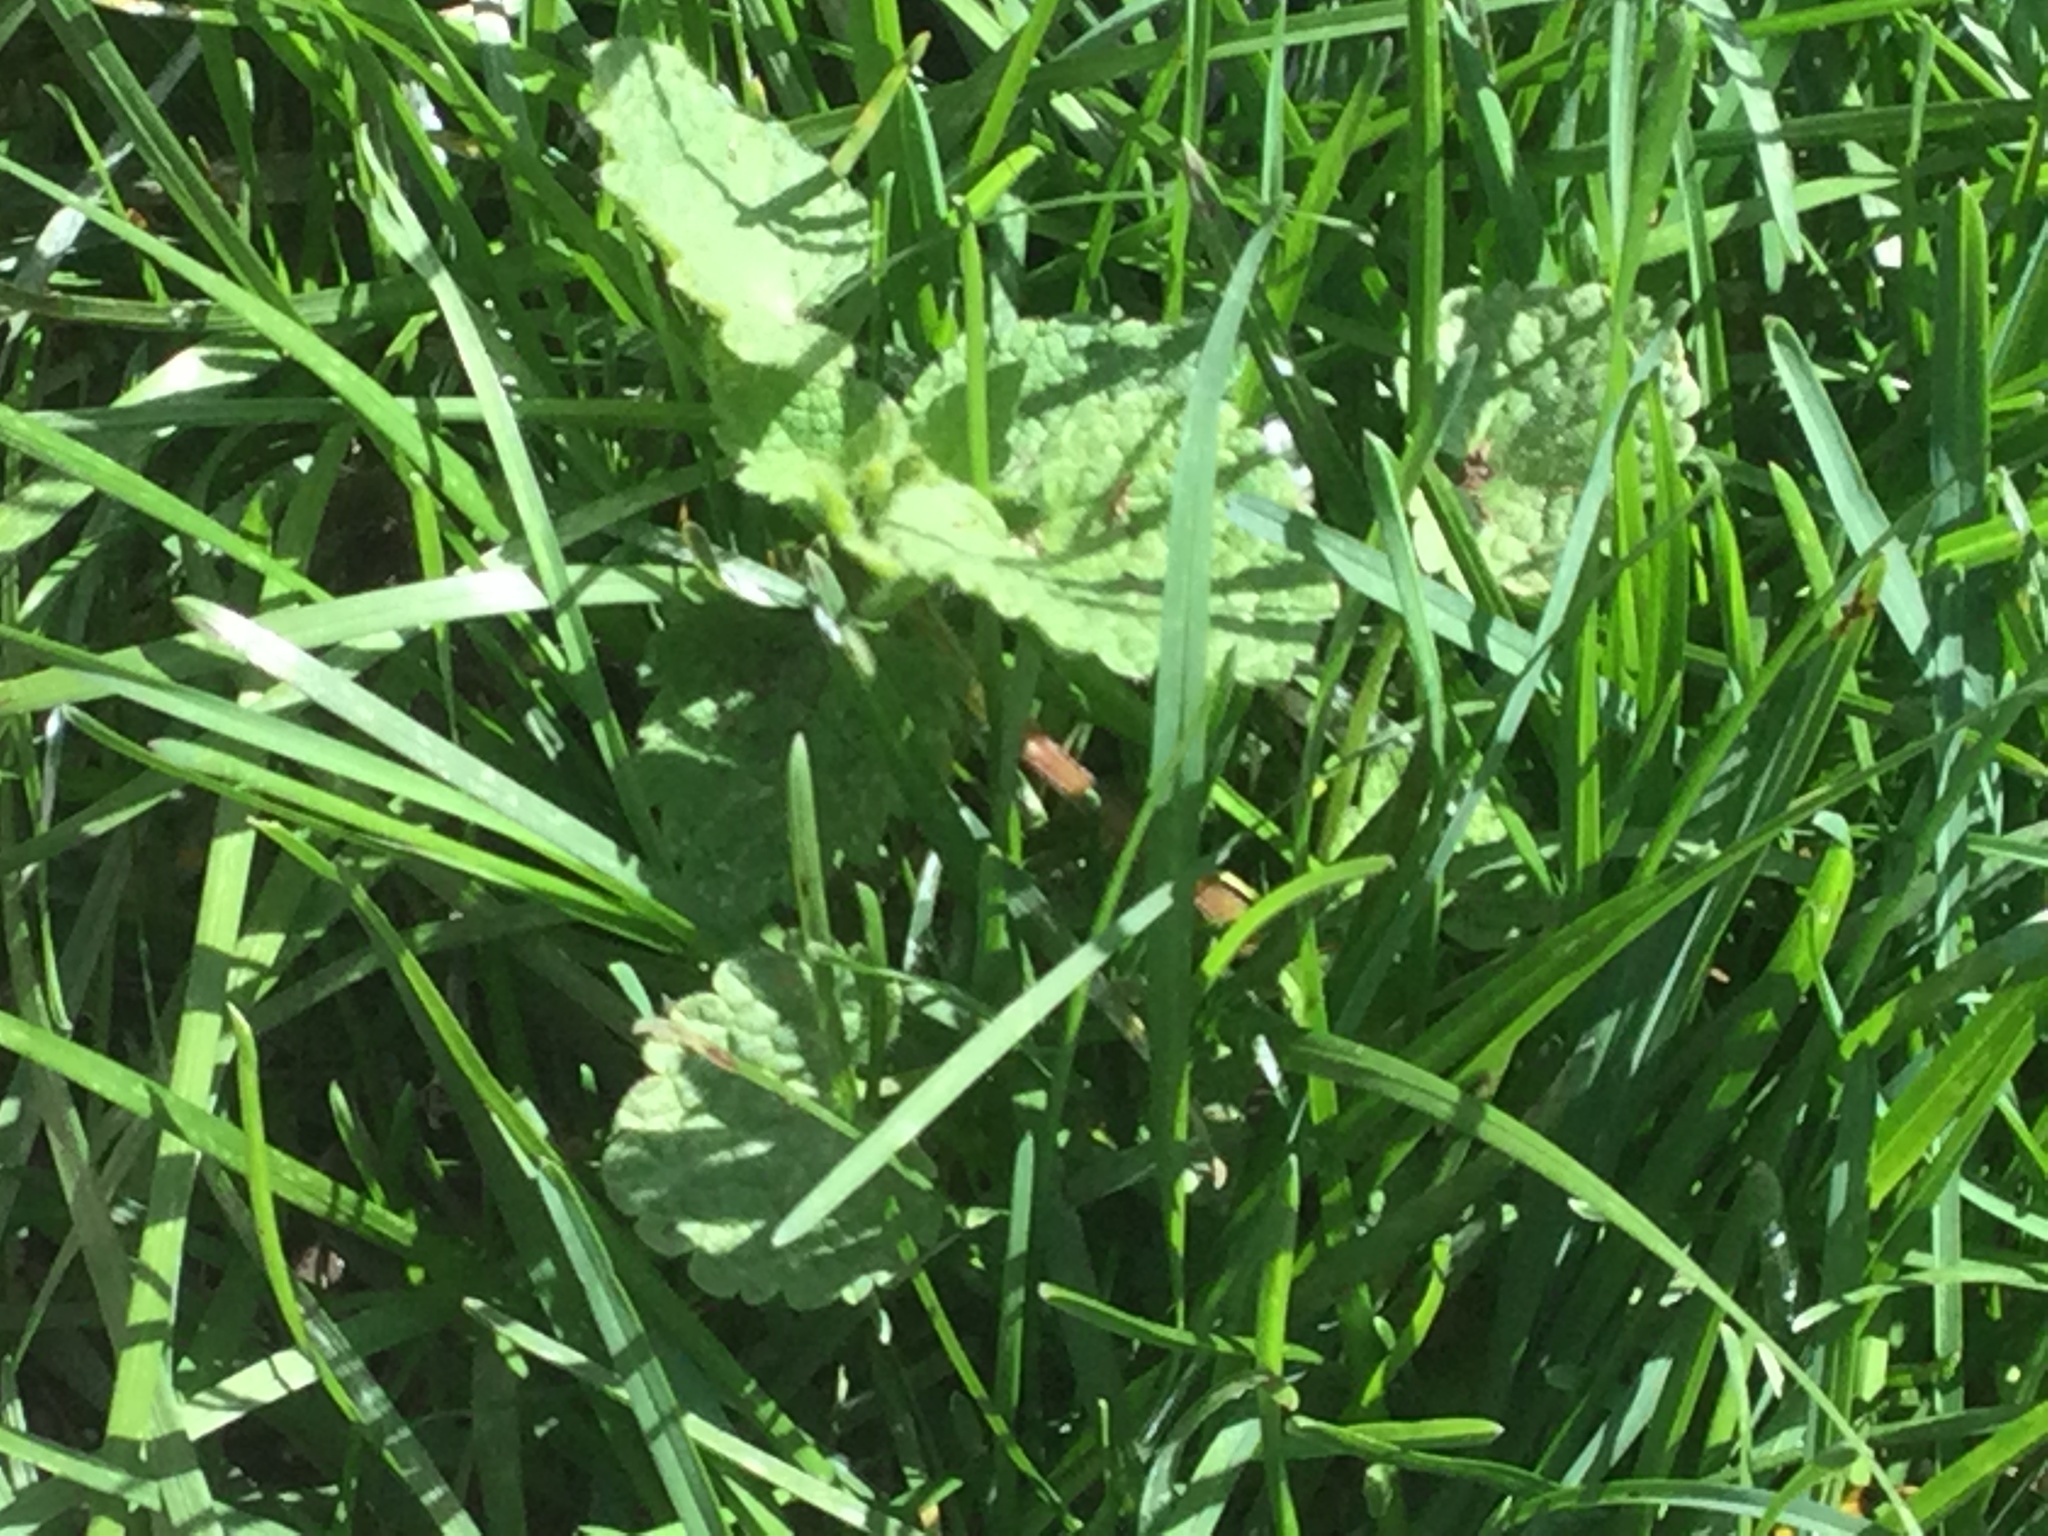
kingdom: Plantae
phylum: Tracheophyta
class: Magnoliopsida
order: Lamiales
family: Lamiaceae
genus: Lamium
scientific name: Lamium purpureum
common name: Red dead-nettle
